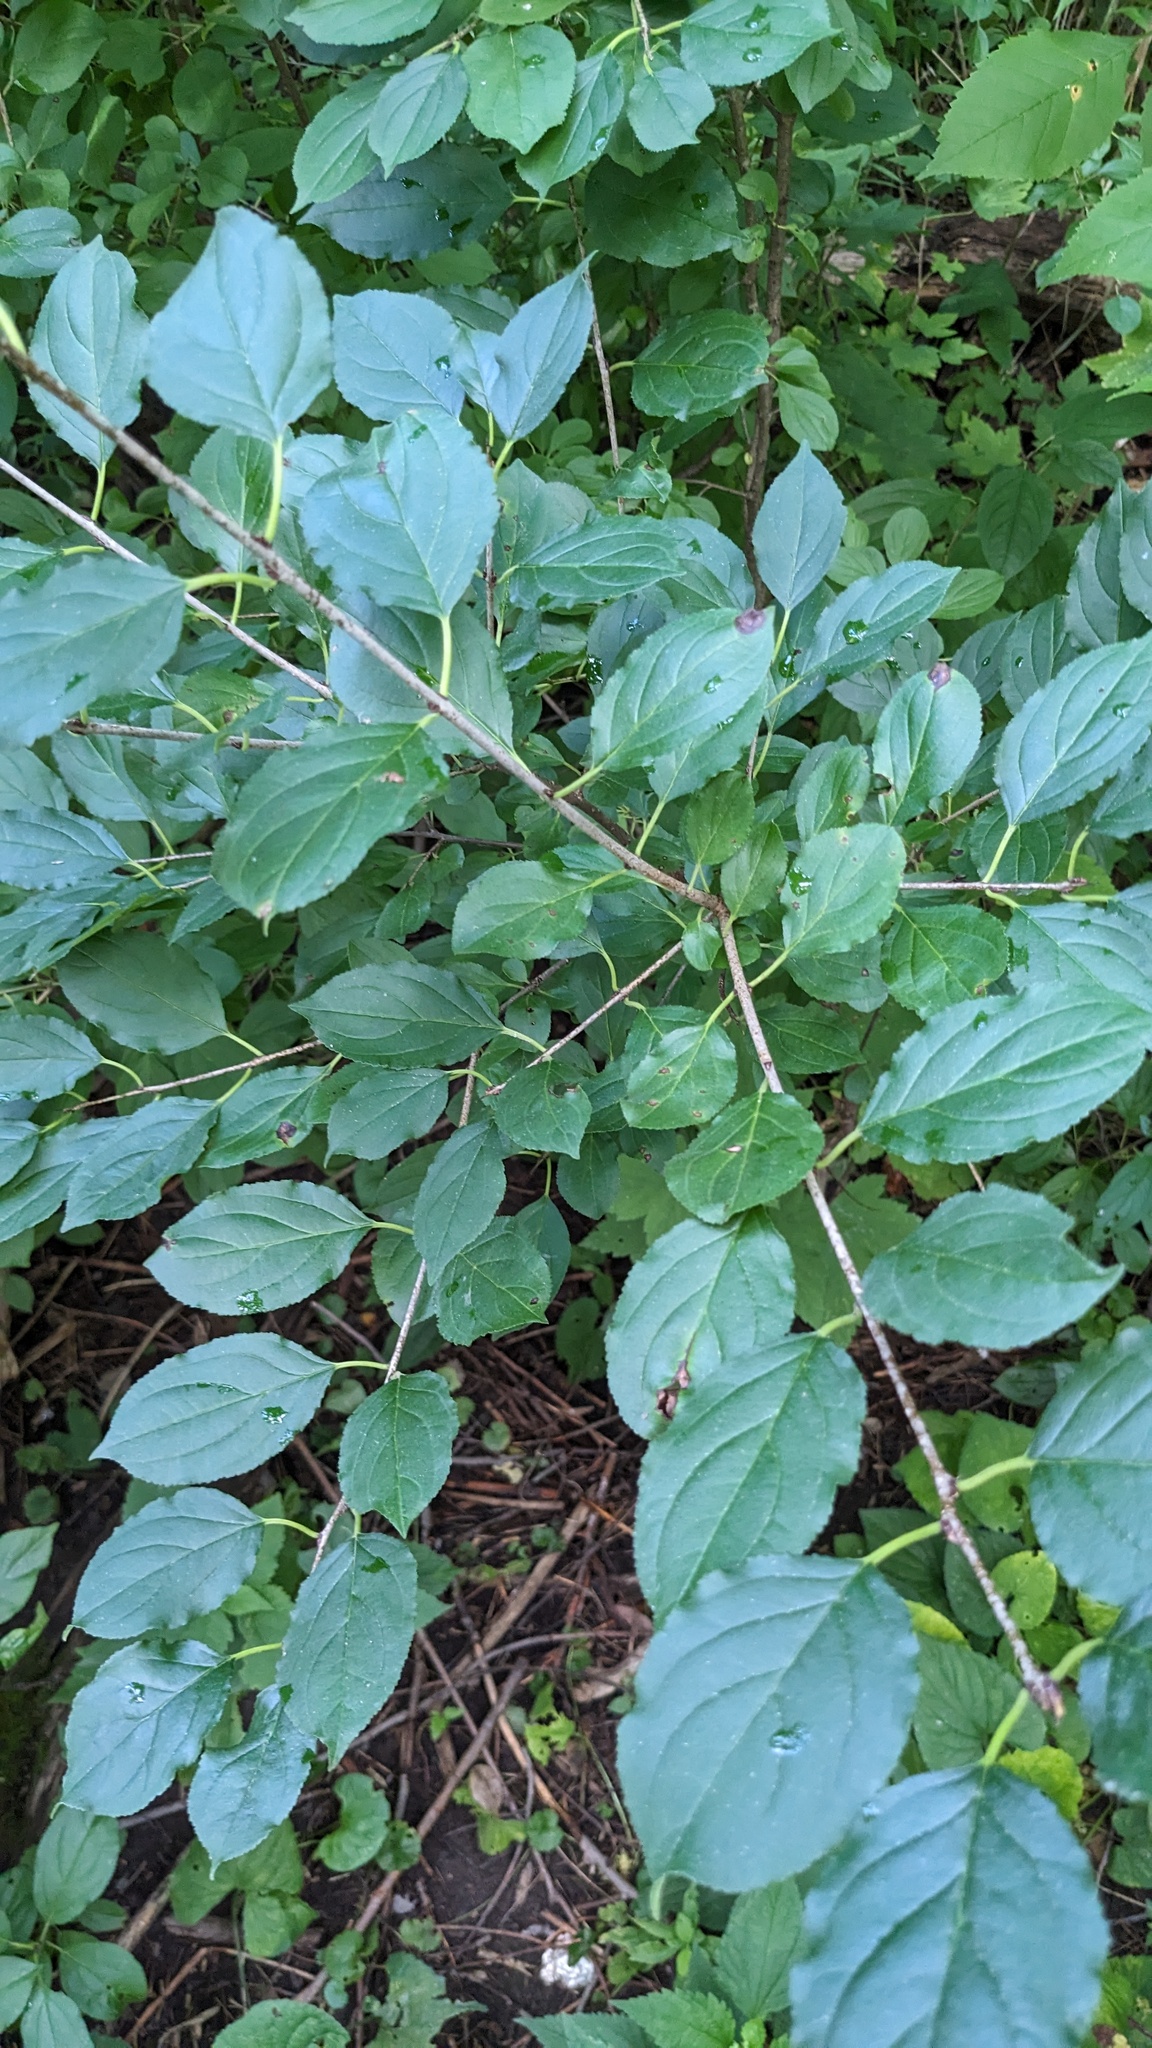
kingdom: Plantae
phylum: Tracheophyta
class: Magnoliopsida
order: Rosales
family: Rhamnaceae
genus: Rhamnus
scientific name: Rhamnus cathartica
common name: Common buckthorn
